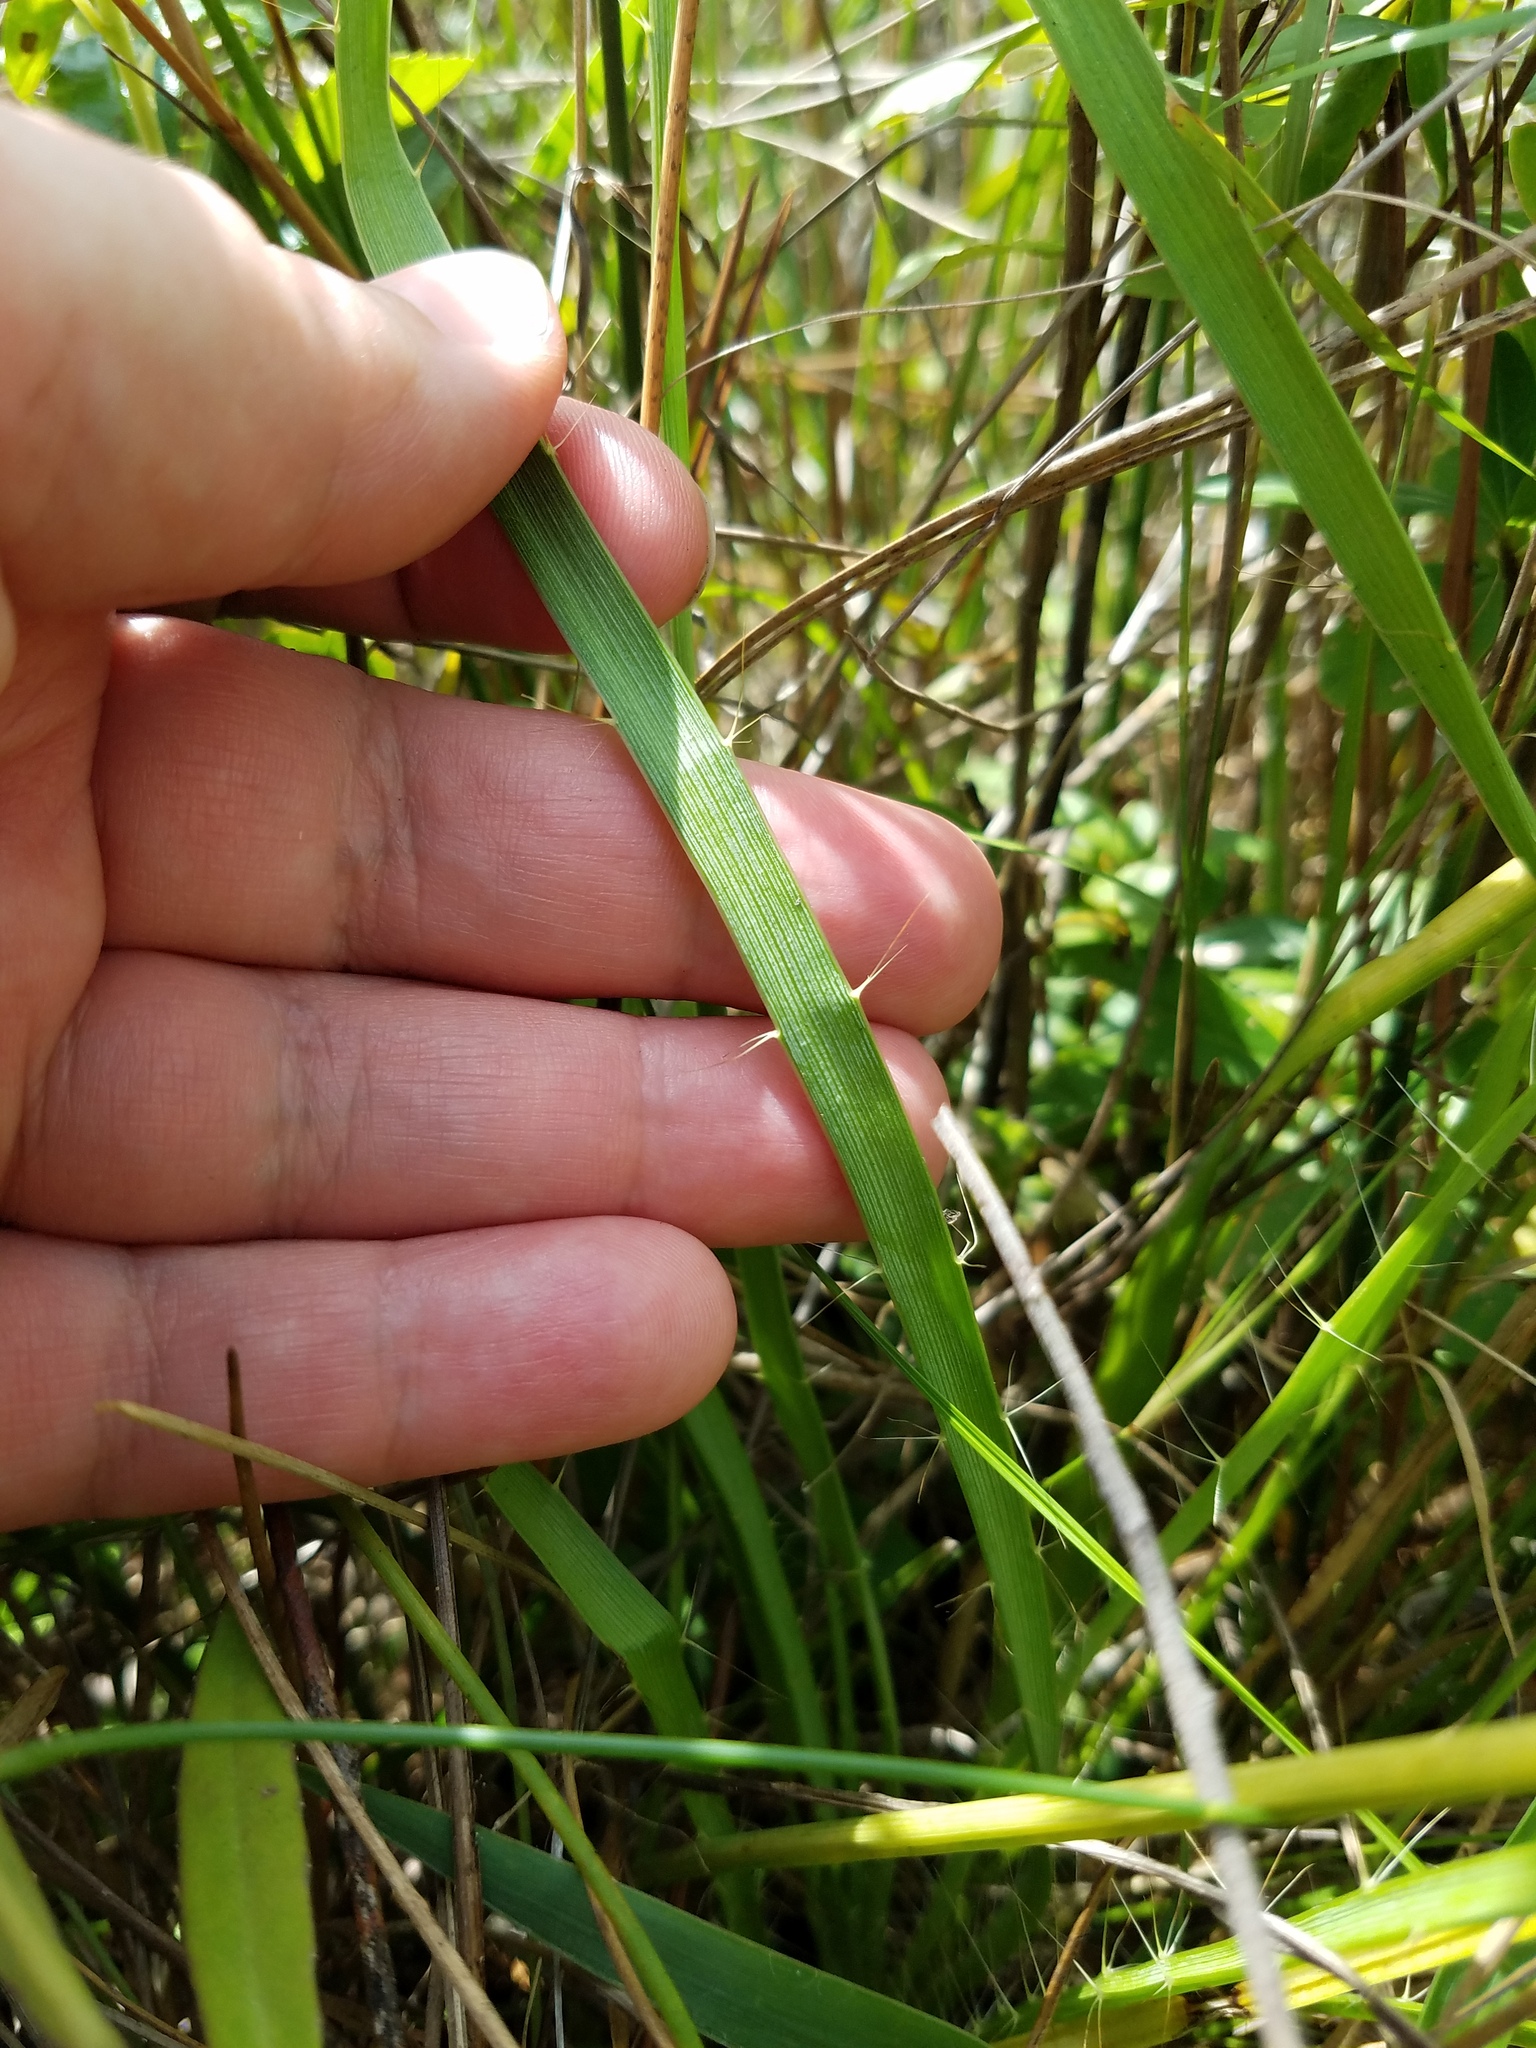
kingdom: Plantae
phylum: Tracheophyta
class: Magnoliopsida
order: Apiales
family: Apiaceae
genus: Eryngium
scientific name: Eryngium yuccifolium
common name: Button eryngo
